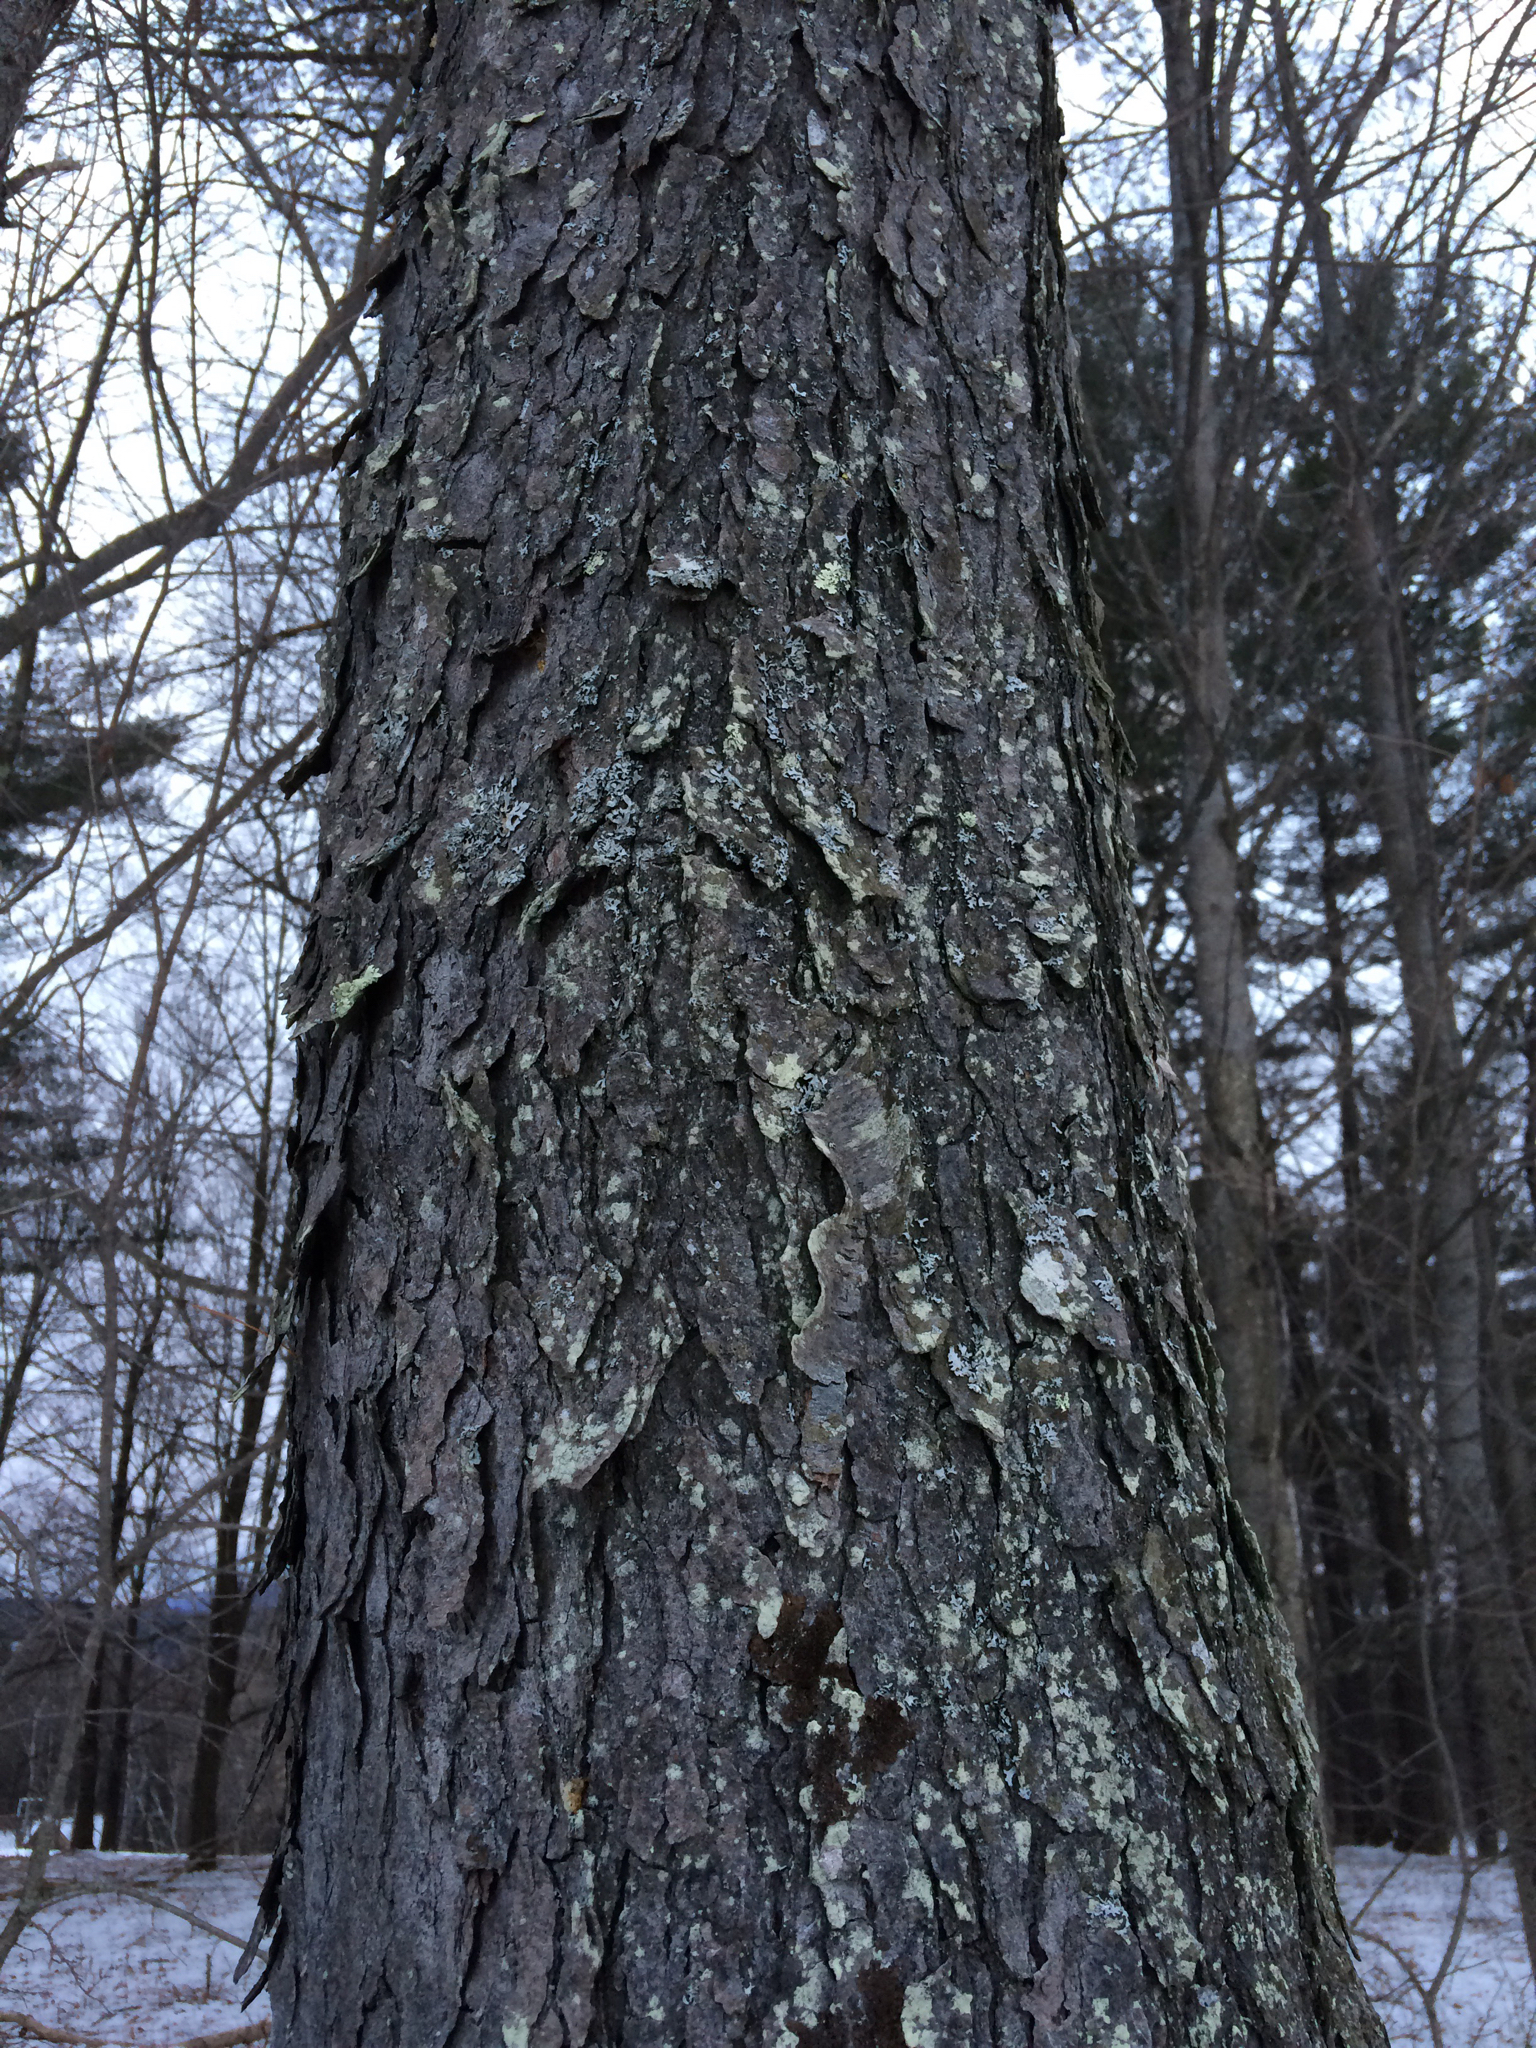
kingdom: Plantae
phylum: Tracheophyta
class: Magnoliopsida
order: Rosales
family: Rosaceae
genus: Prunus
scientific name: Prunus serotina
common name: Black cherry
